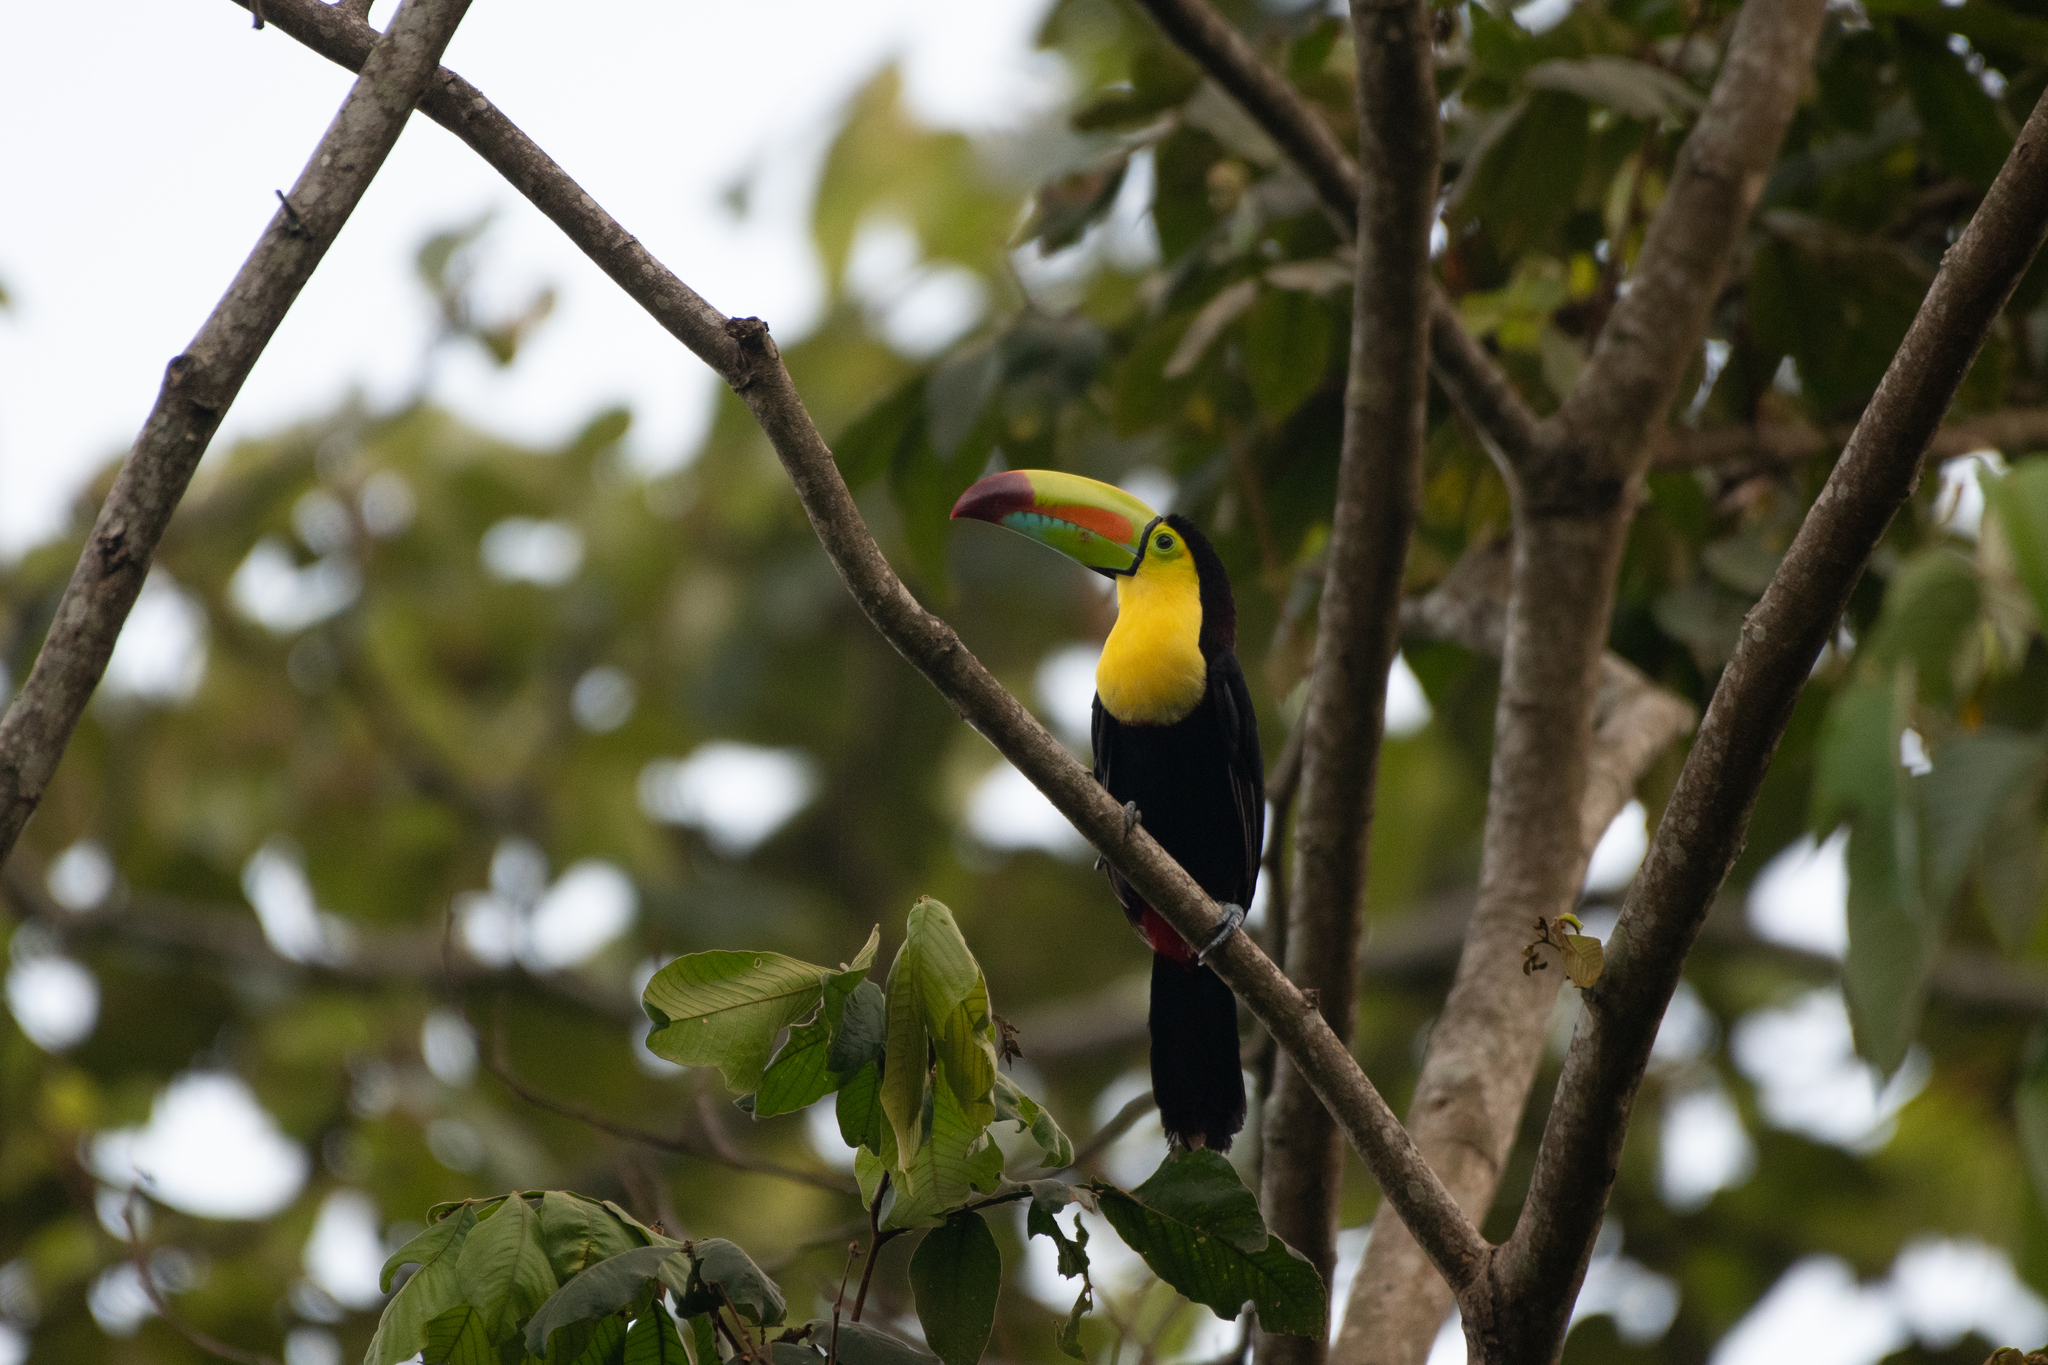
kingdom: Animalia
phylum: Chordata
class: Aves
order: Piciformes
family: Ramphastidae
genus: Ramphastos
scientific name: Ramphastos sulfuratus
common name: Keel-billed toucan
